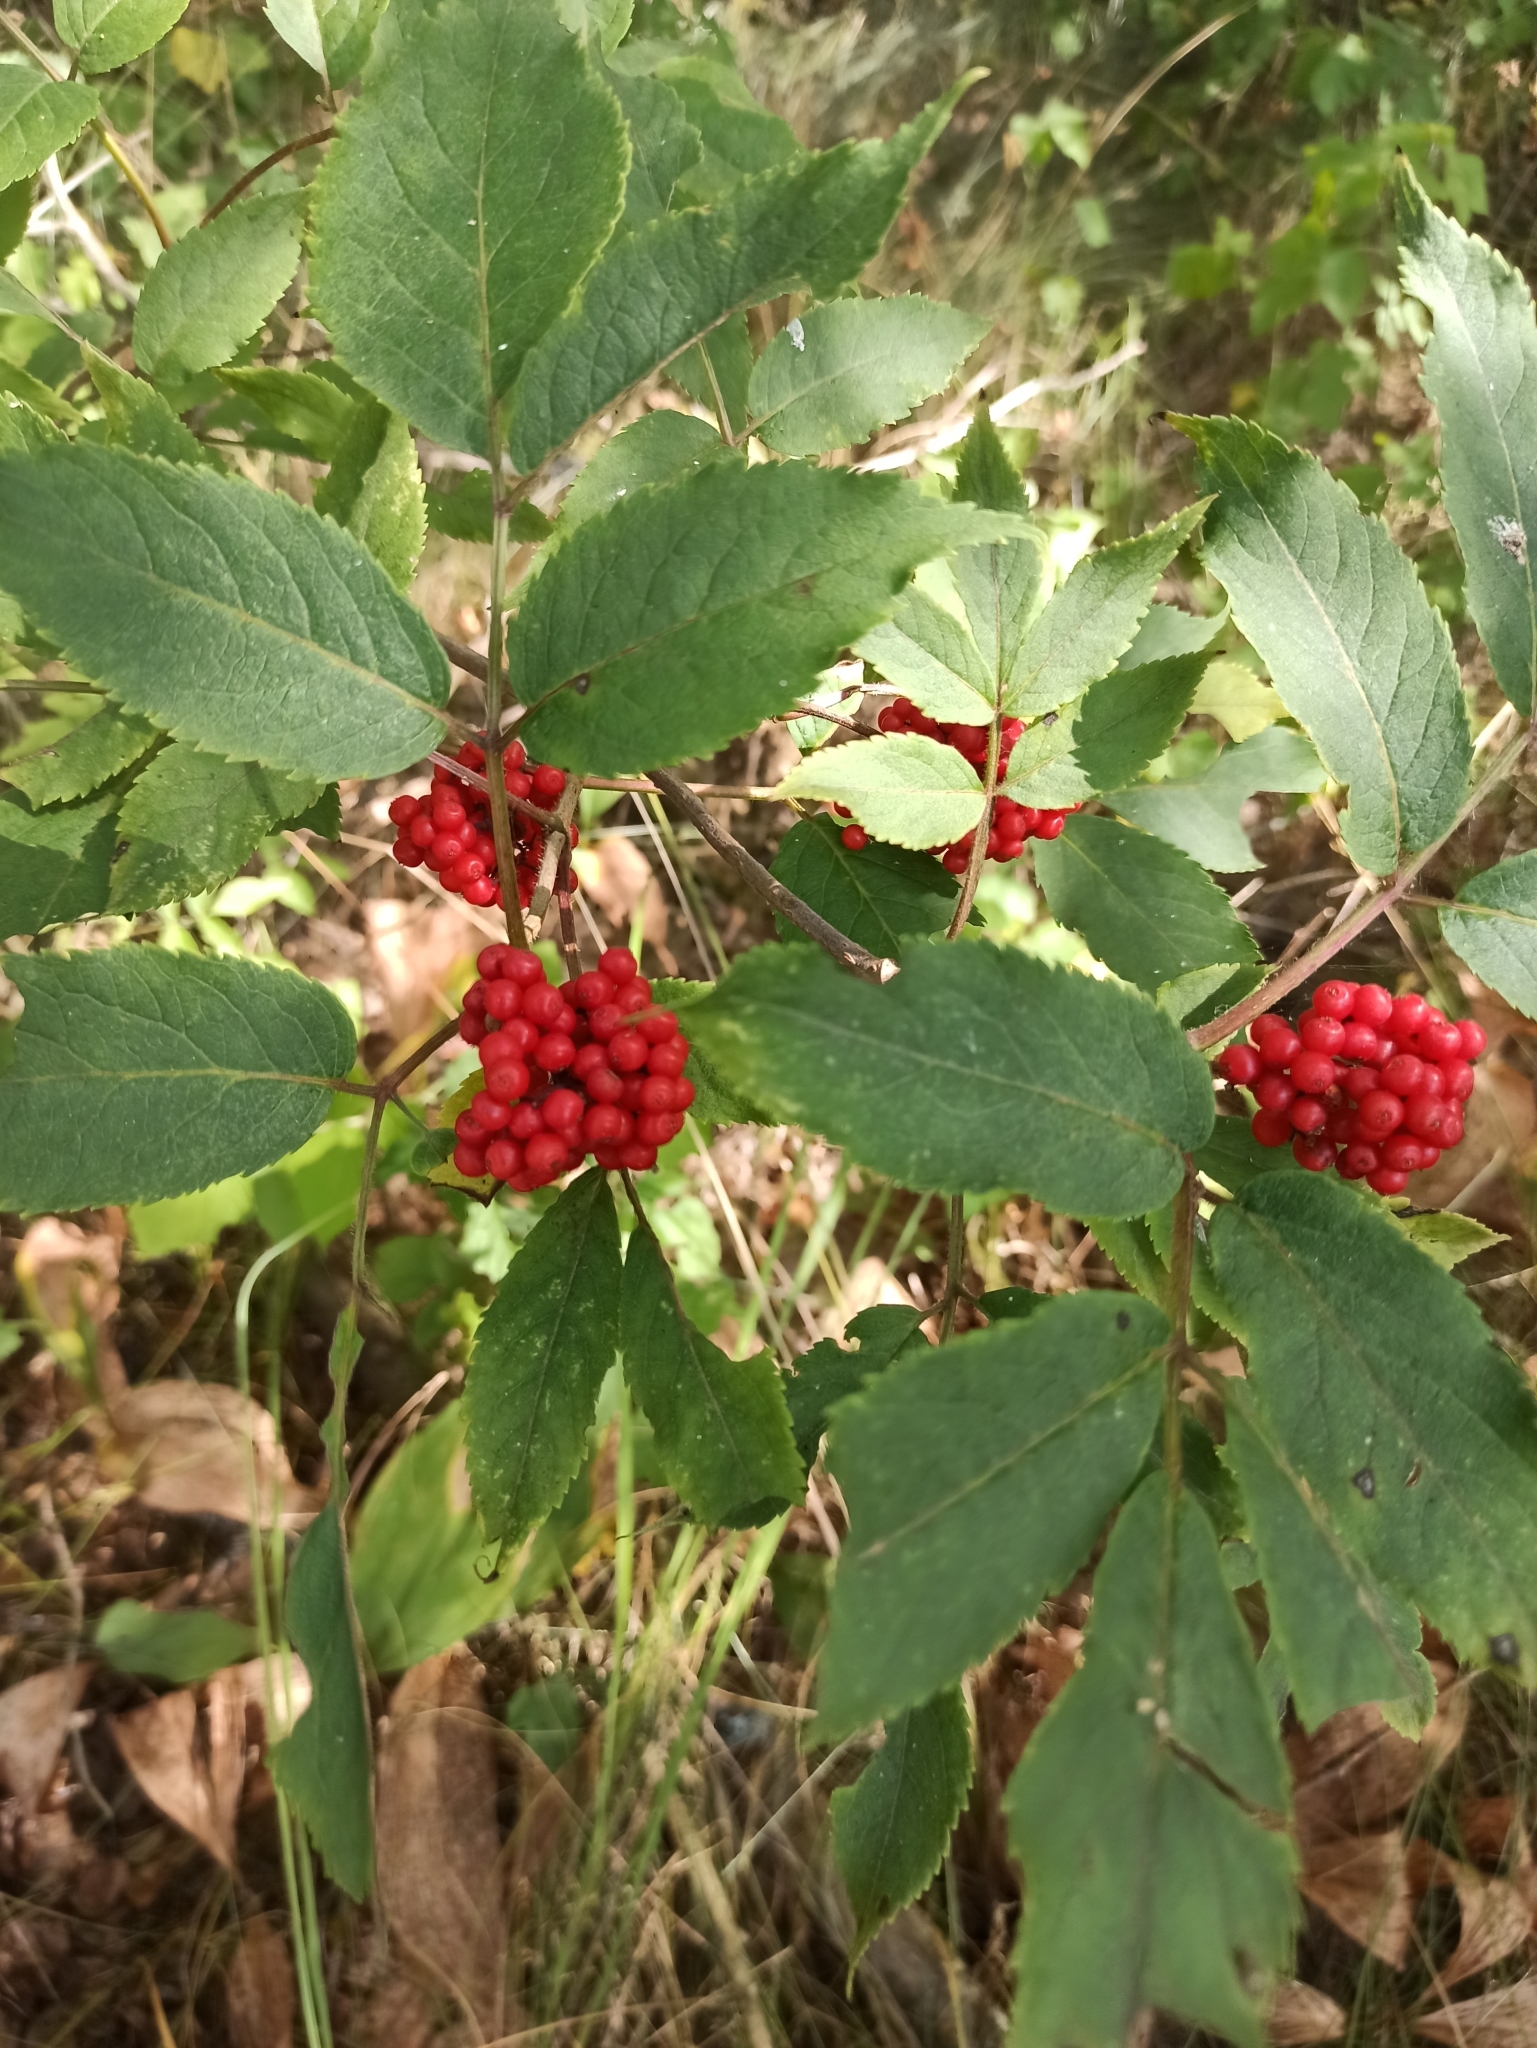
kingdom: Plantae
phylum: Tracheophyta
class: Magnoliopsida
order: Dipsacales
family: Viburnaceae
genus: Sambucus
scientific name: Sambucus racemosa
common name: Red-berried elder
